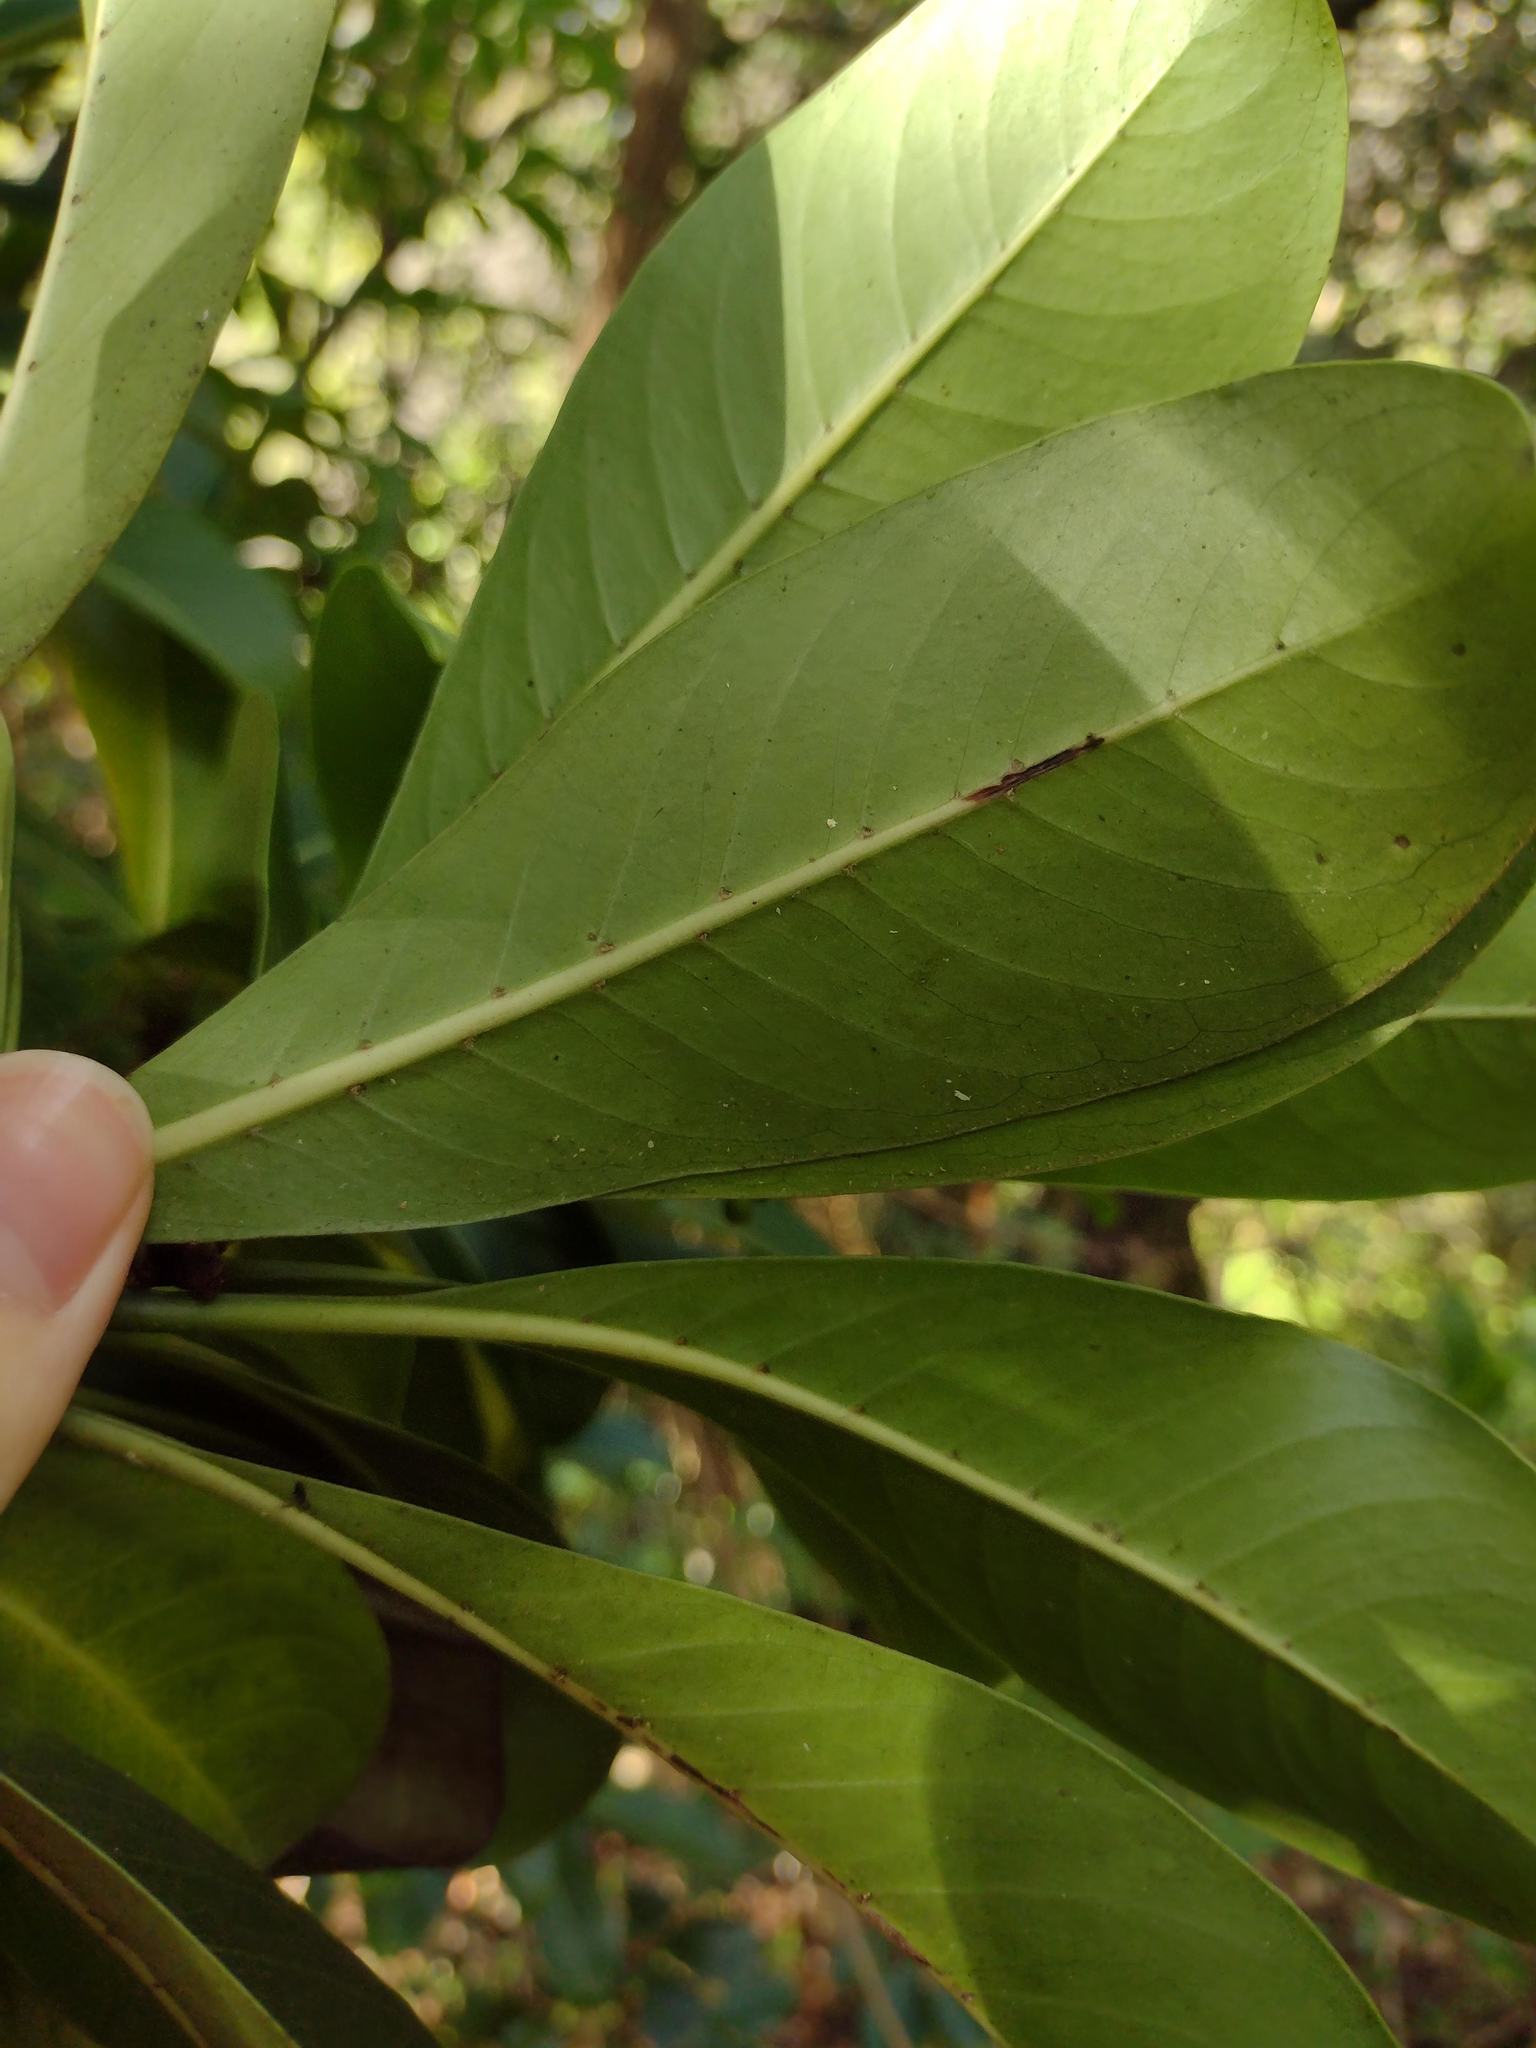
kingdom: Plantae
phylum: Tracheophyta
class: Magnoliopsida
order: Gentianales
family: Rubiaceae
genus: Psychotria
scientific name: Psychotria mariniana
